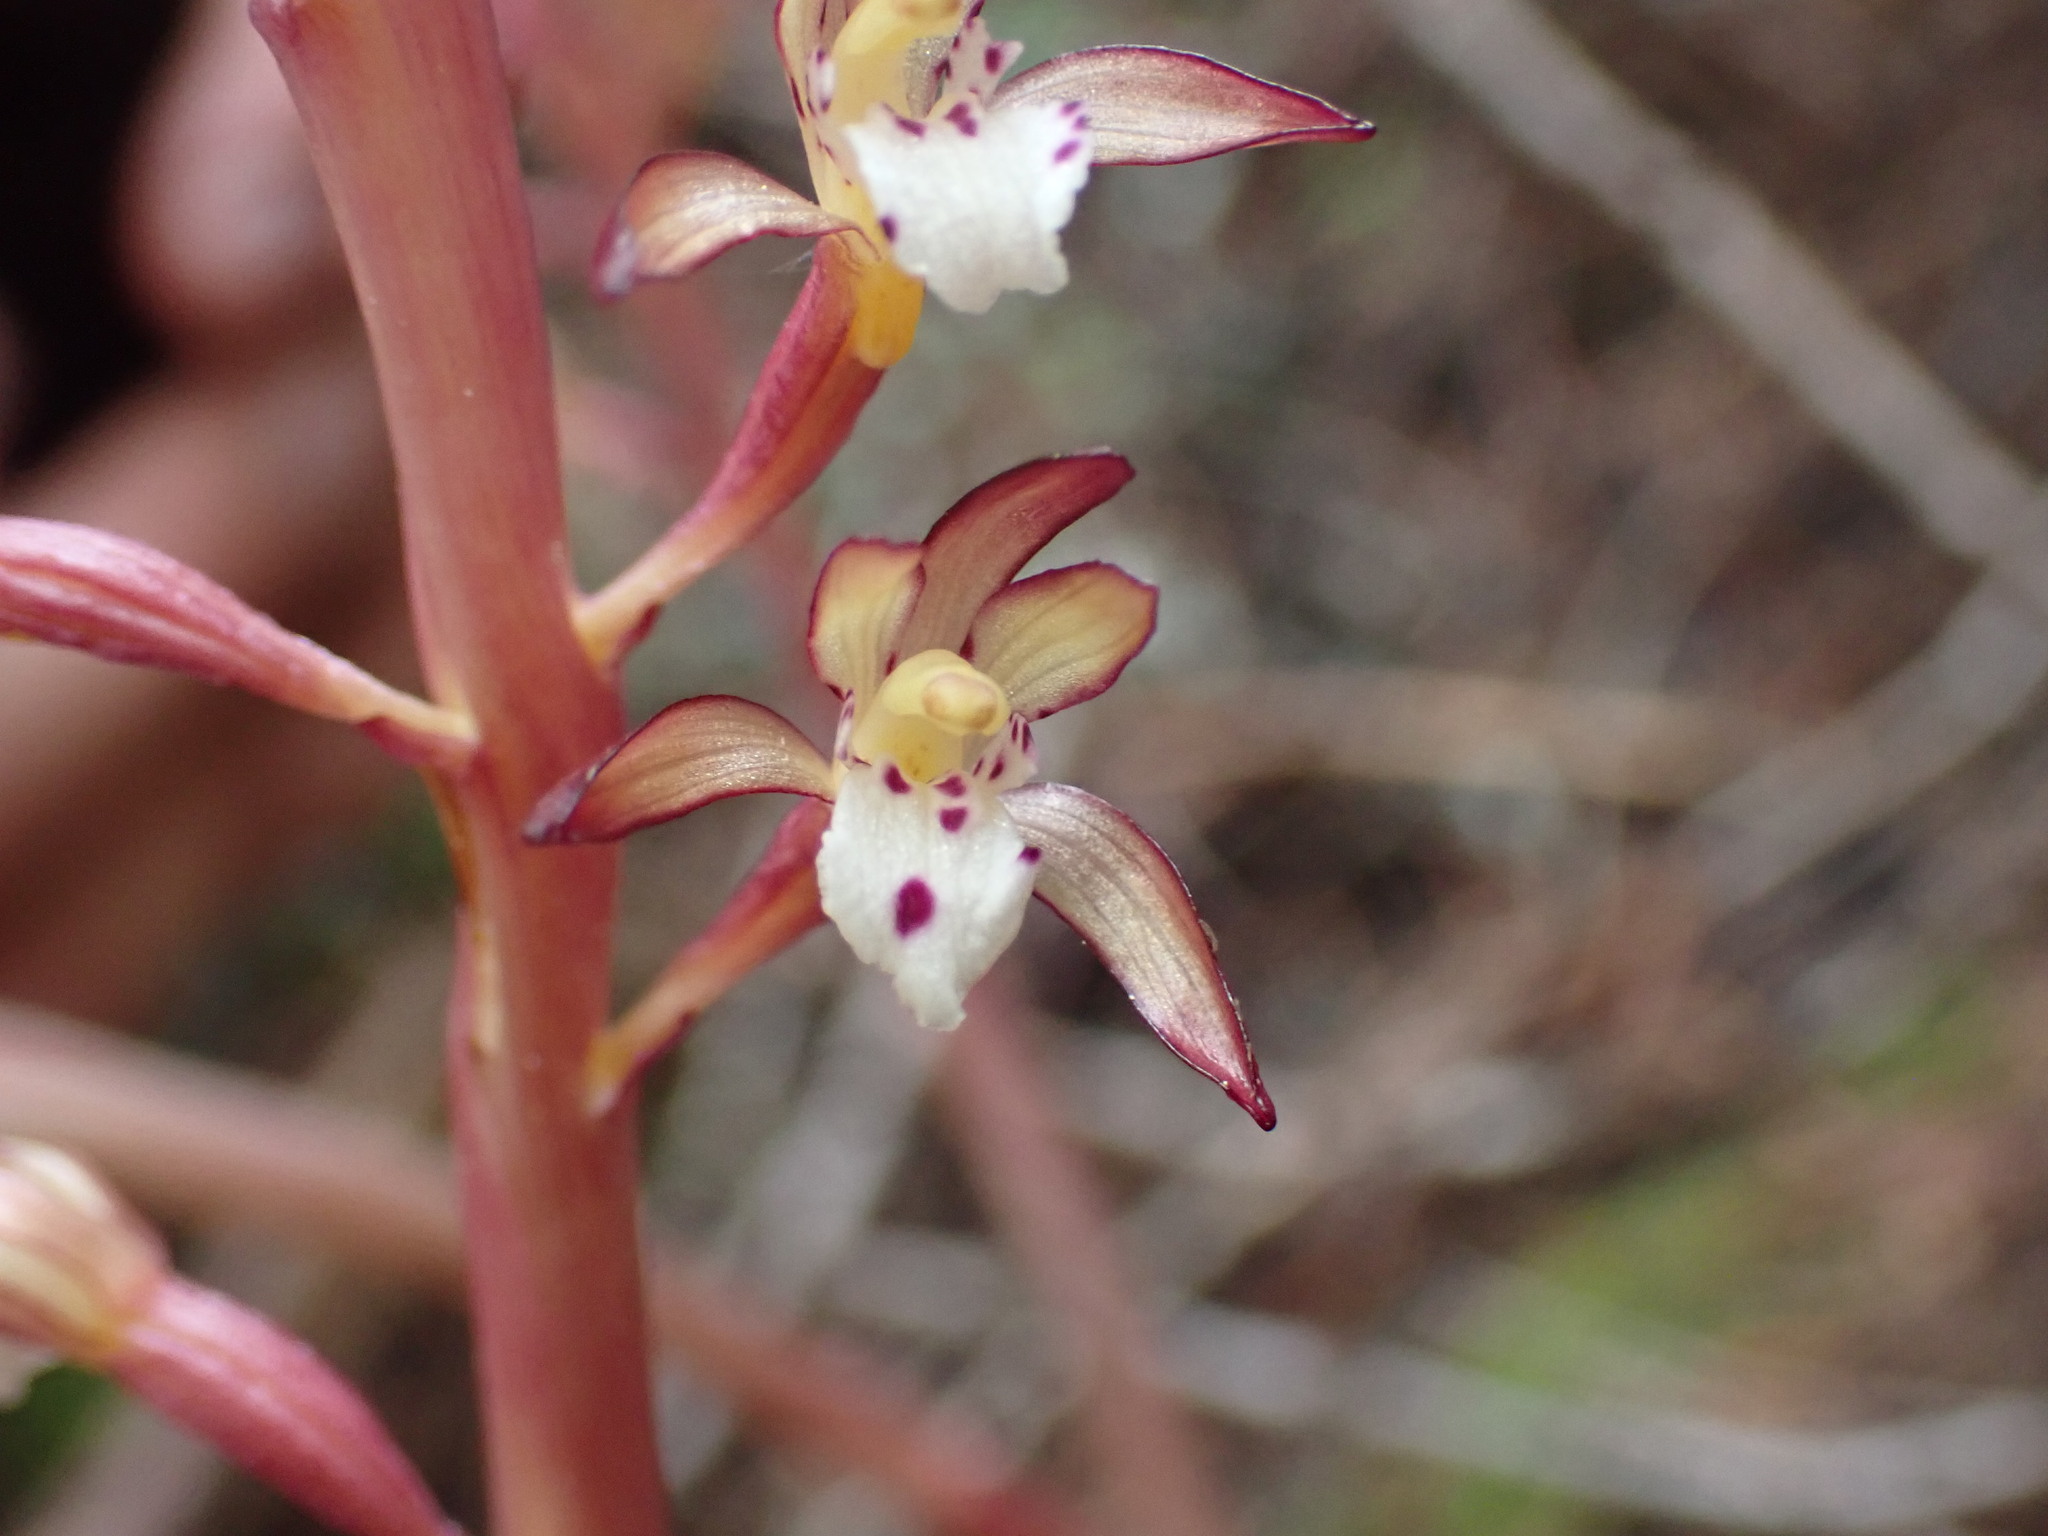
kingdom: Plantae
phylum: Tracheophyta
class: Liliopsida
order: Asparagales
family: Orchidaceae
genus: Corallorhiza
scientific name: Corallorhiza maculata
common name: Spotted coralroot
